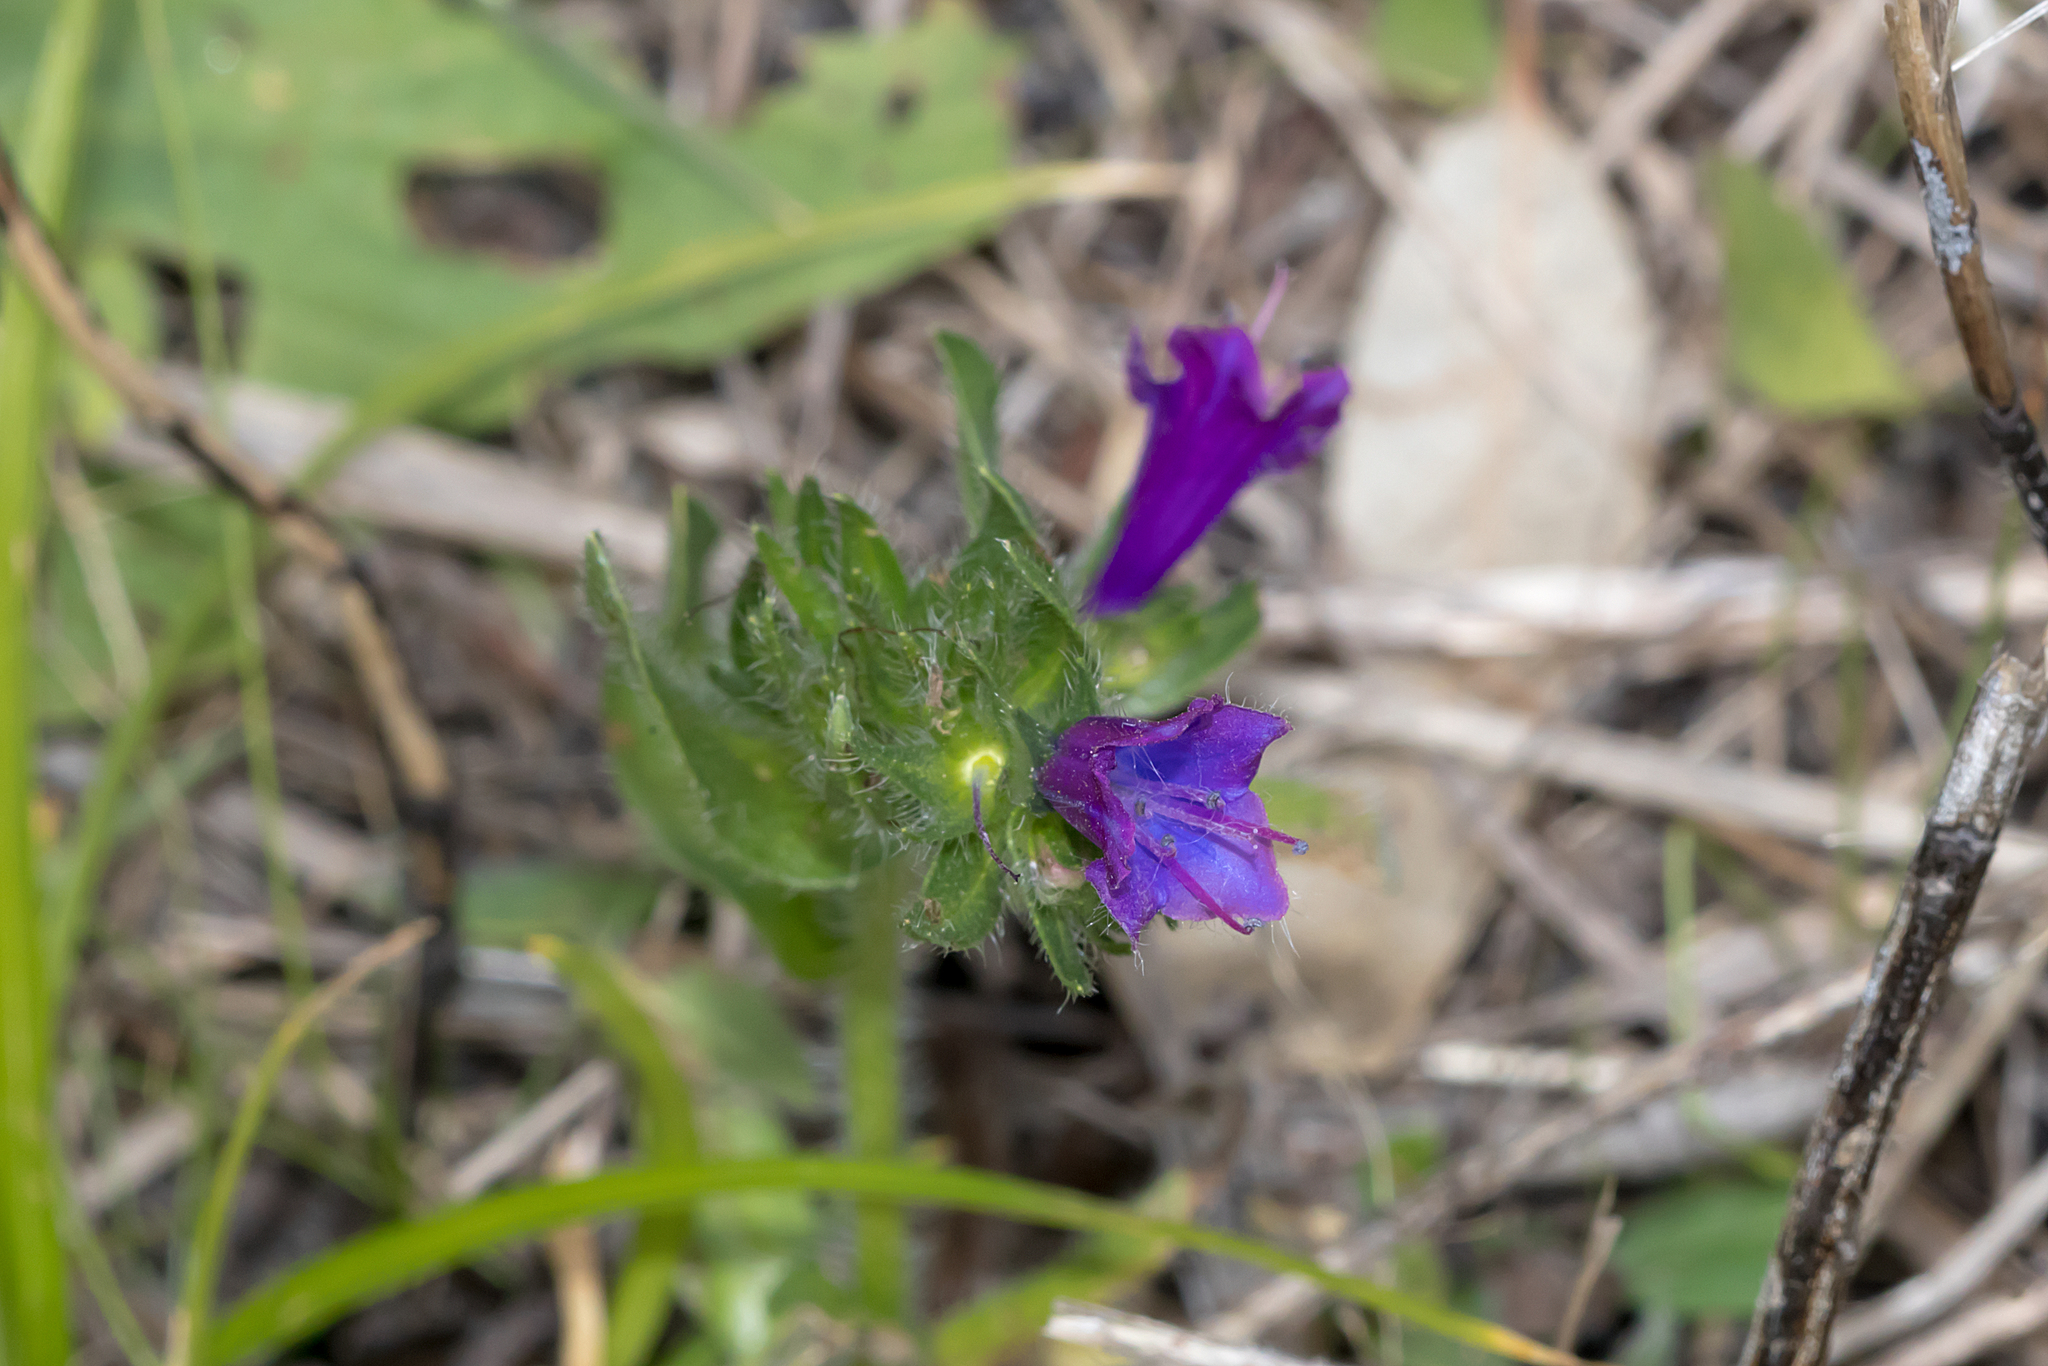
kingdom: Plantae
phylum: Tracheophyta
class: Magnoliopsida
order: Boraginales
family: Boraginaceae
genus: Echium
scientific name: Echium plantagineum
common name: Purple viper's-bugloss
